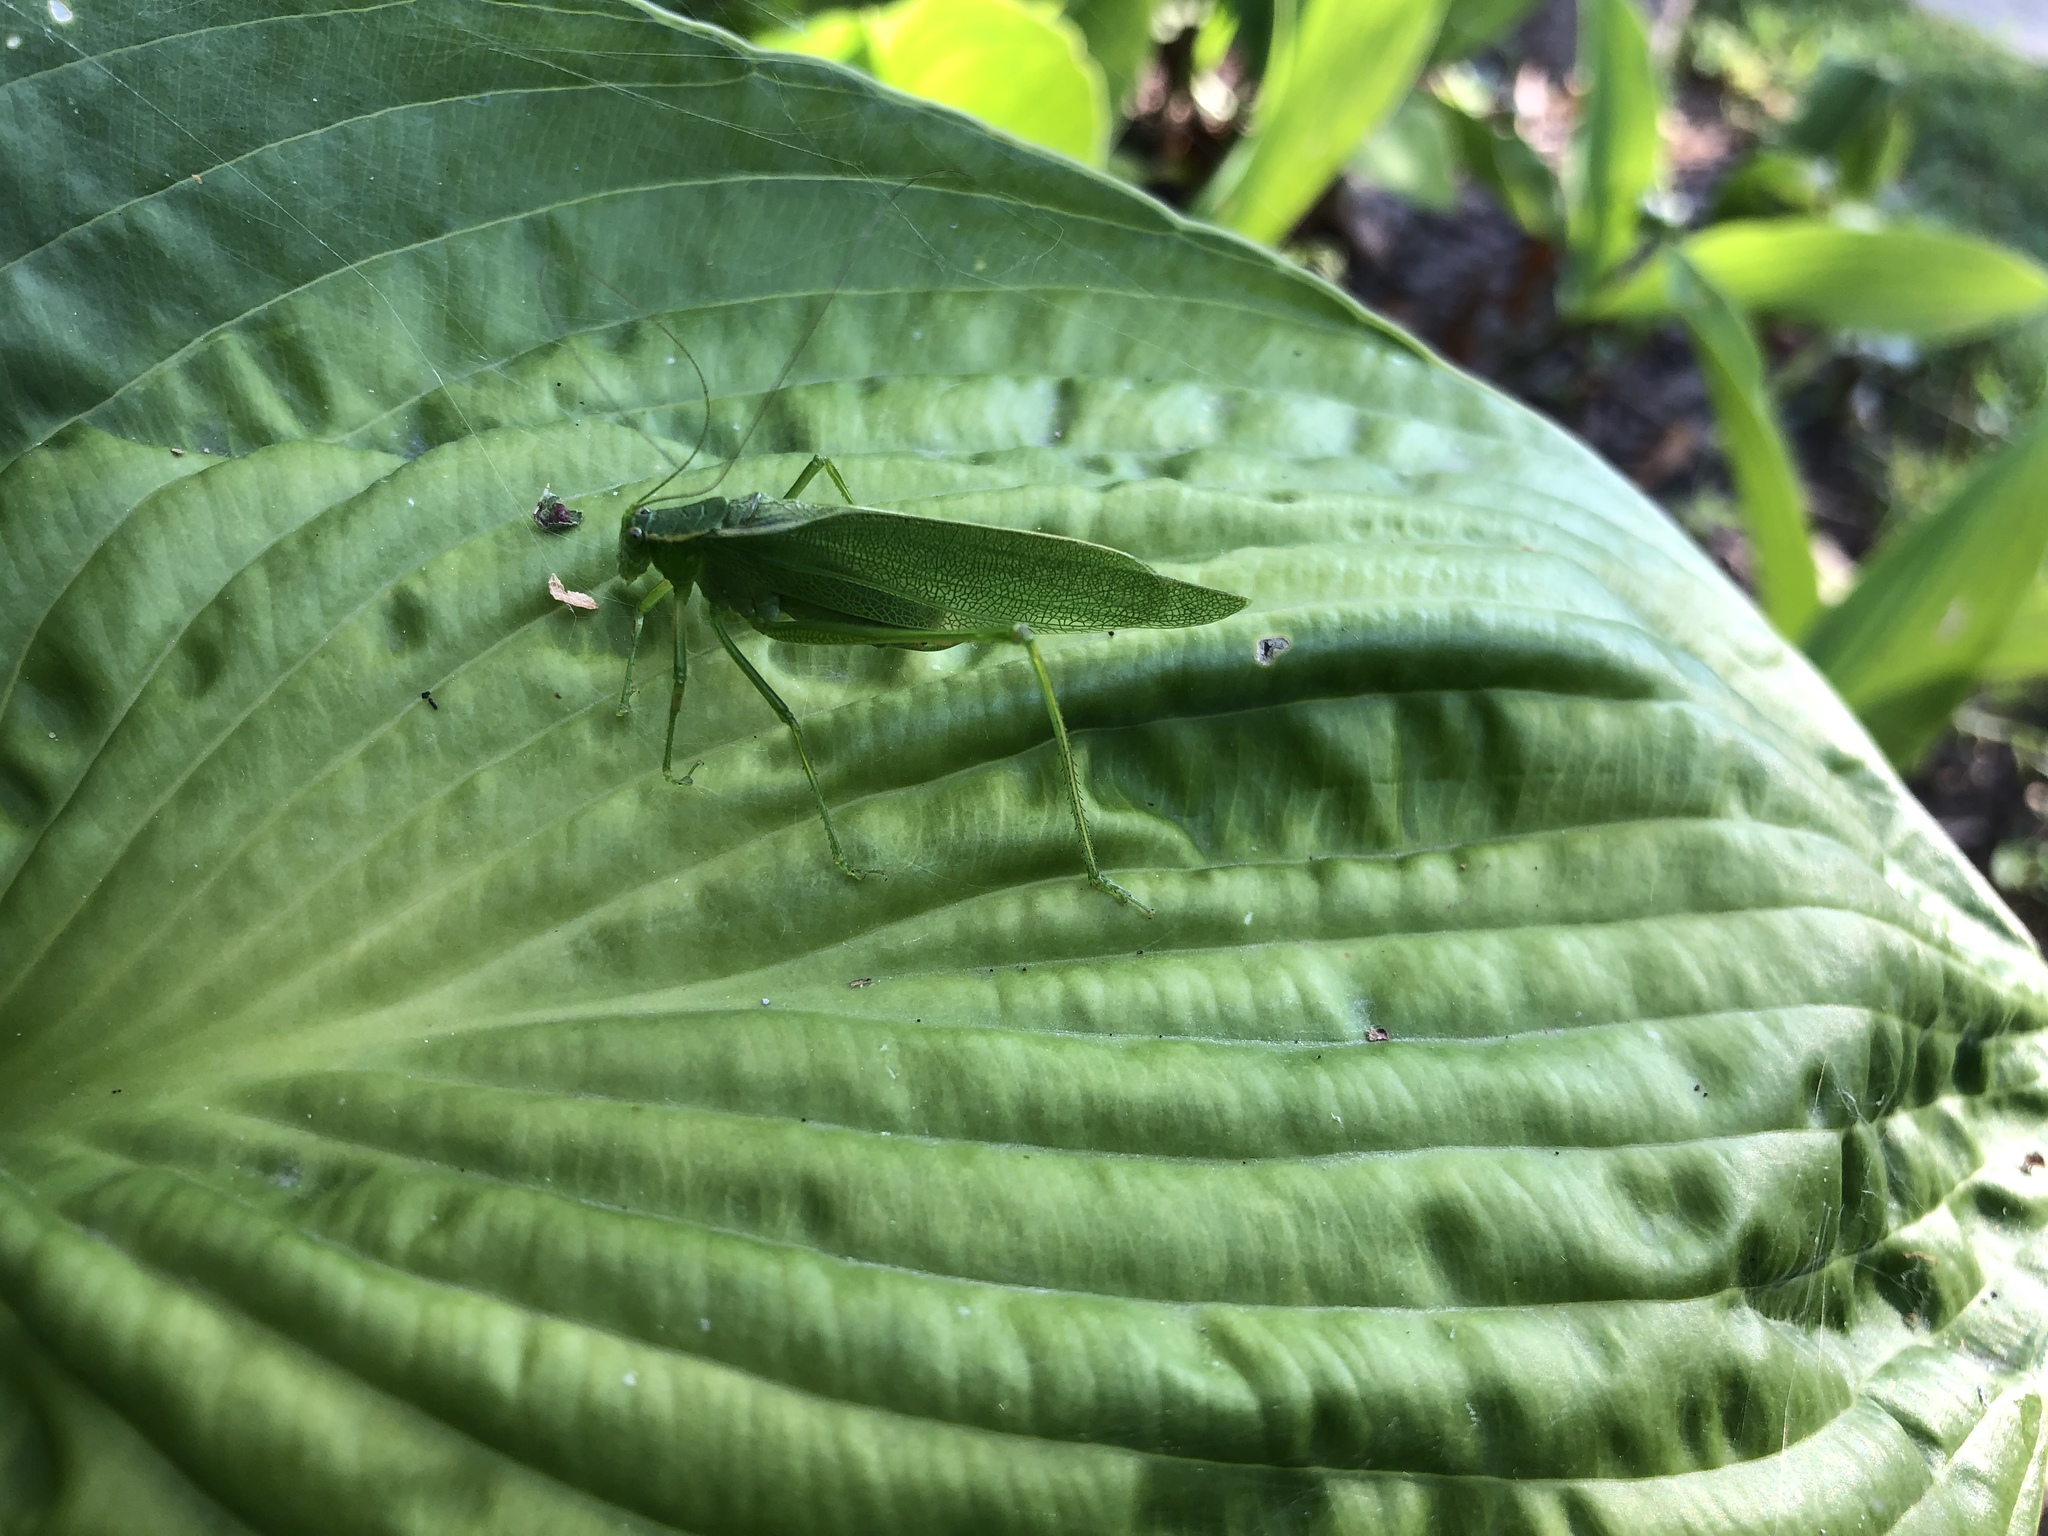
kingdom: Animalia
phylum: Arthropoda
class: Insecta
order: Orthoptera
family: Tettigoniidae
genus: Scudderia
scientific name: Scudderia septentrionalis
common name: Northern bush-katydid
